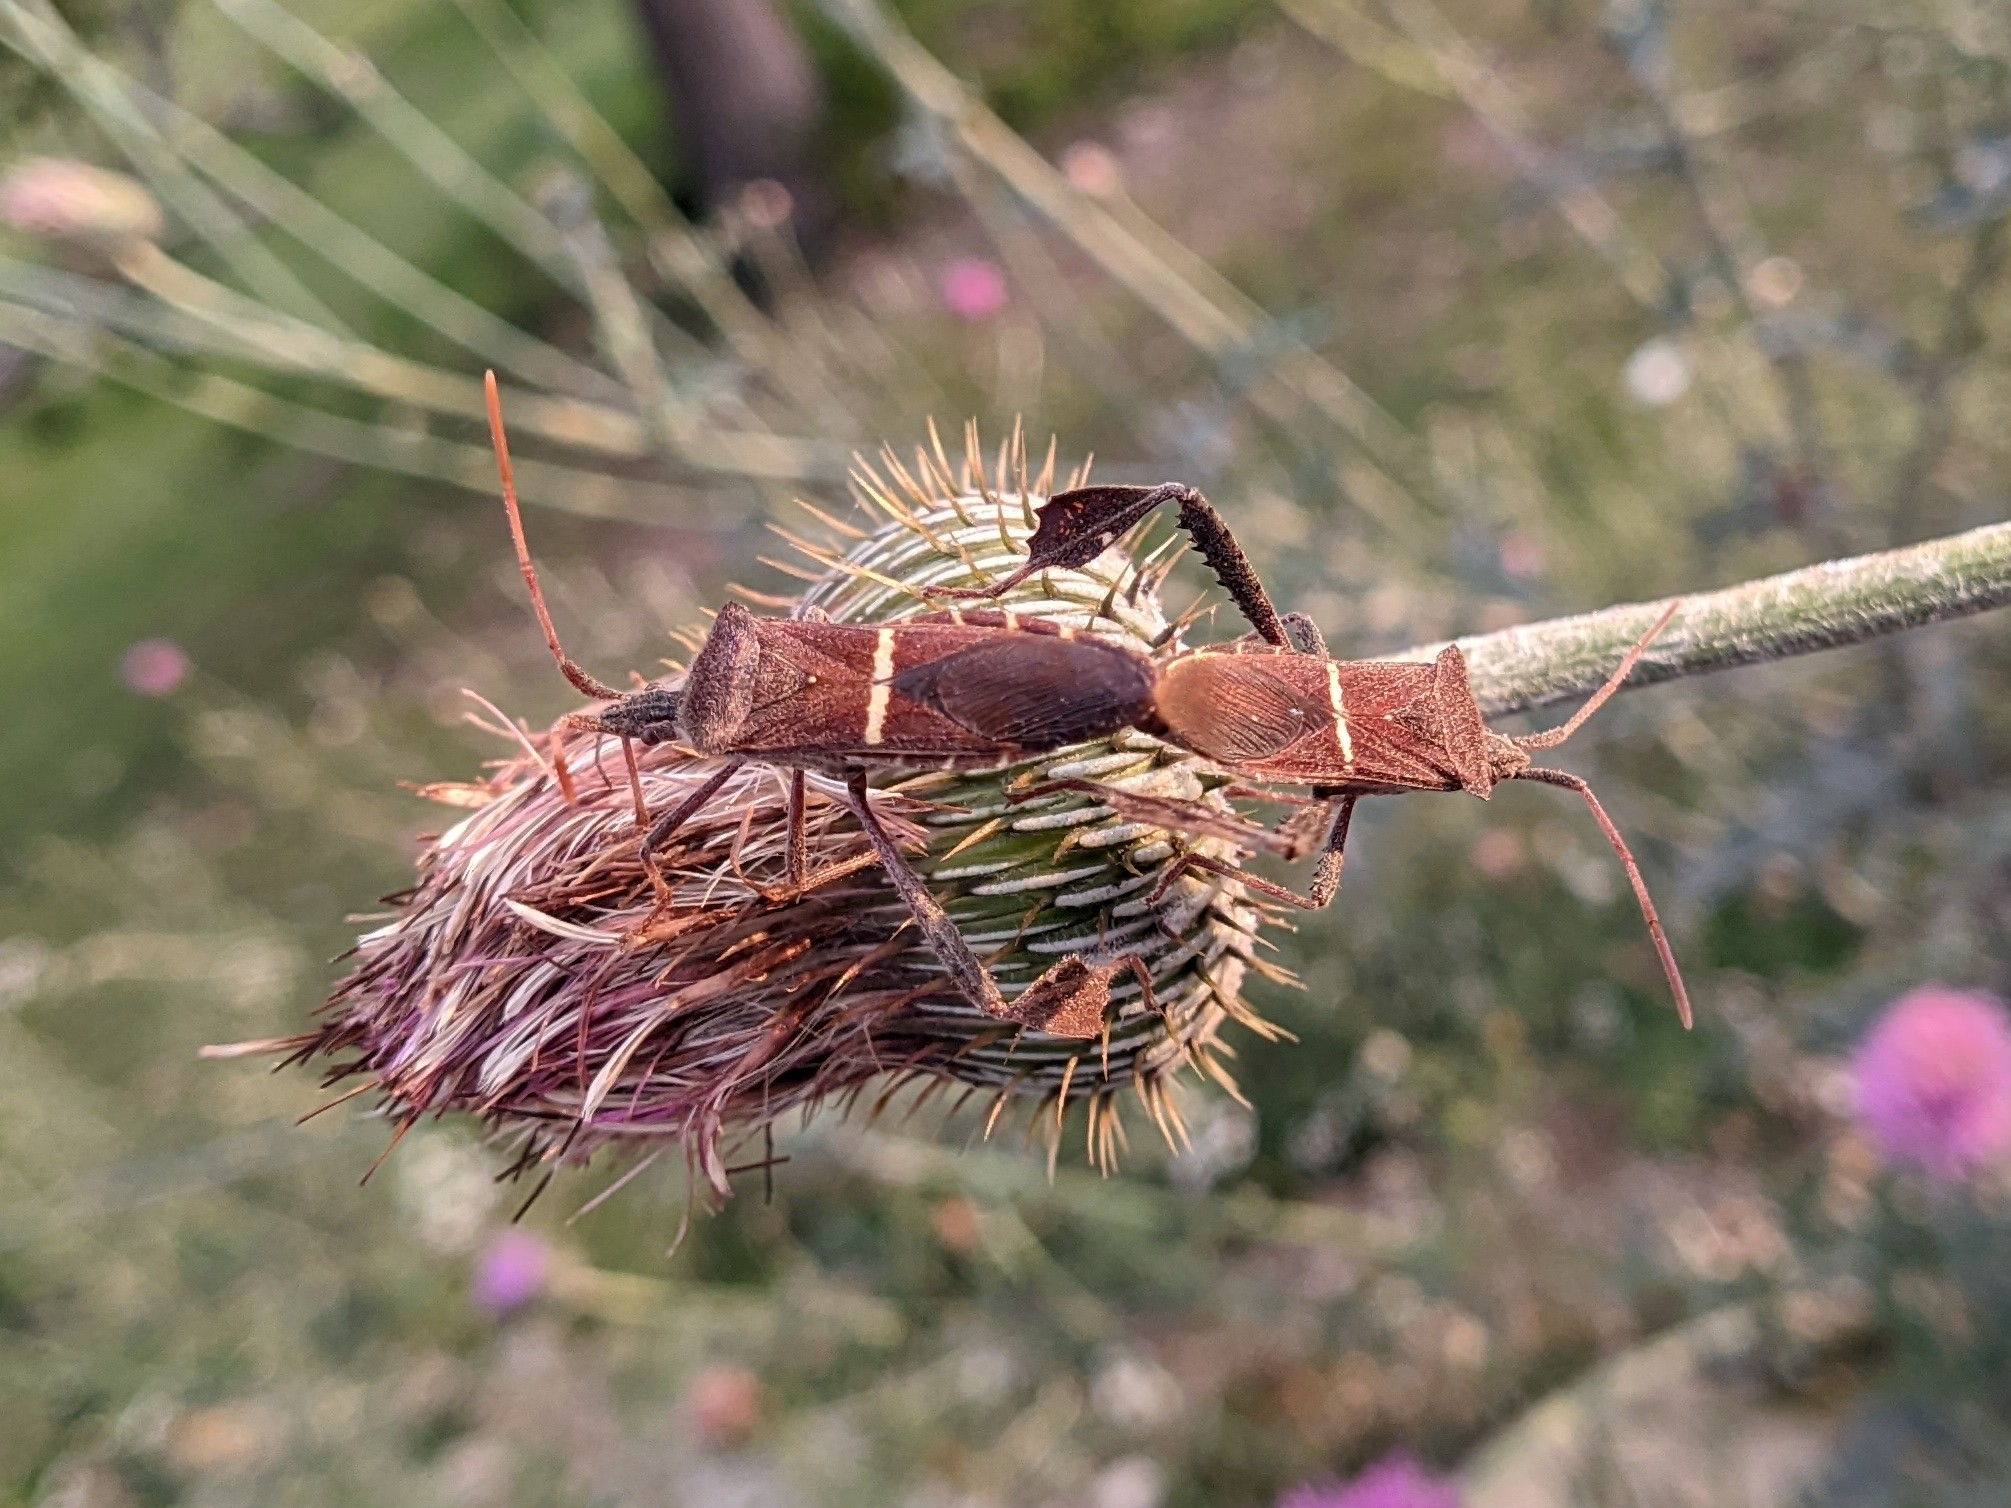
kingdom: Animalia
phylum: Arthropoda
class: Insecta
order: Hemiptera
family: Coreidae
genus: Leptoglossus
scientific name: Leptoglossus phyllopus
